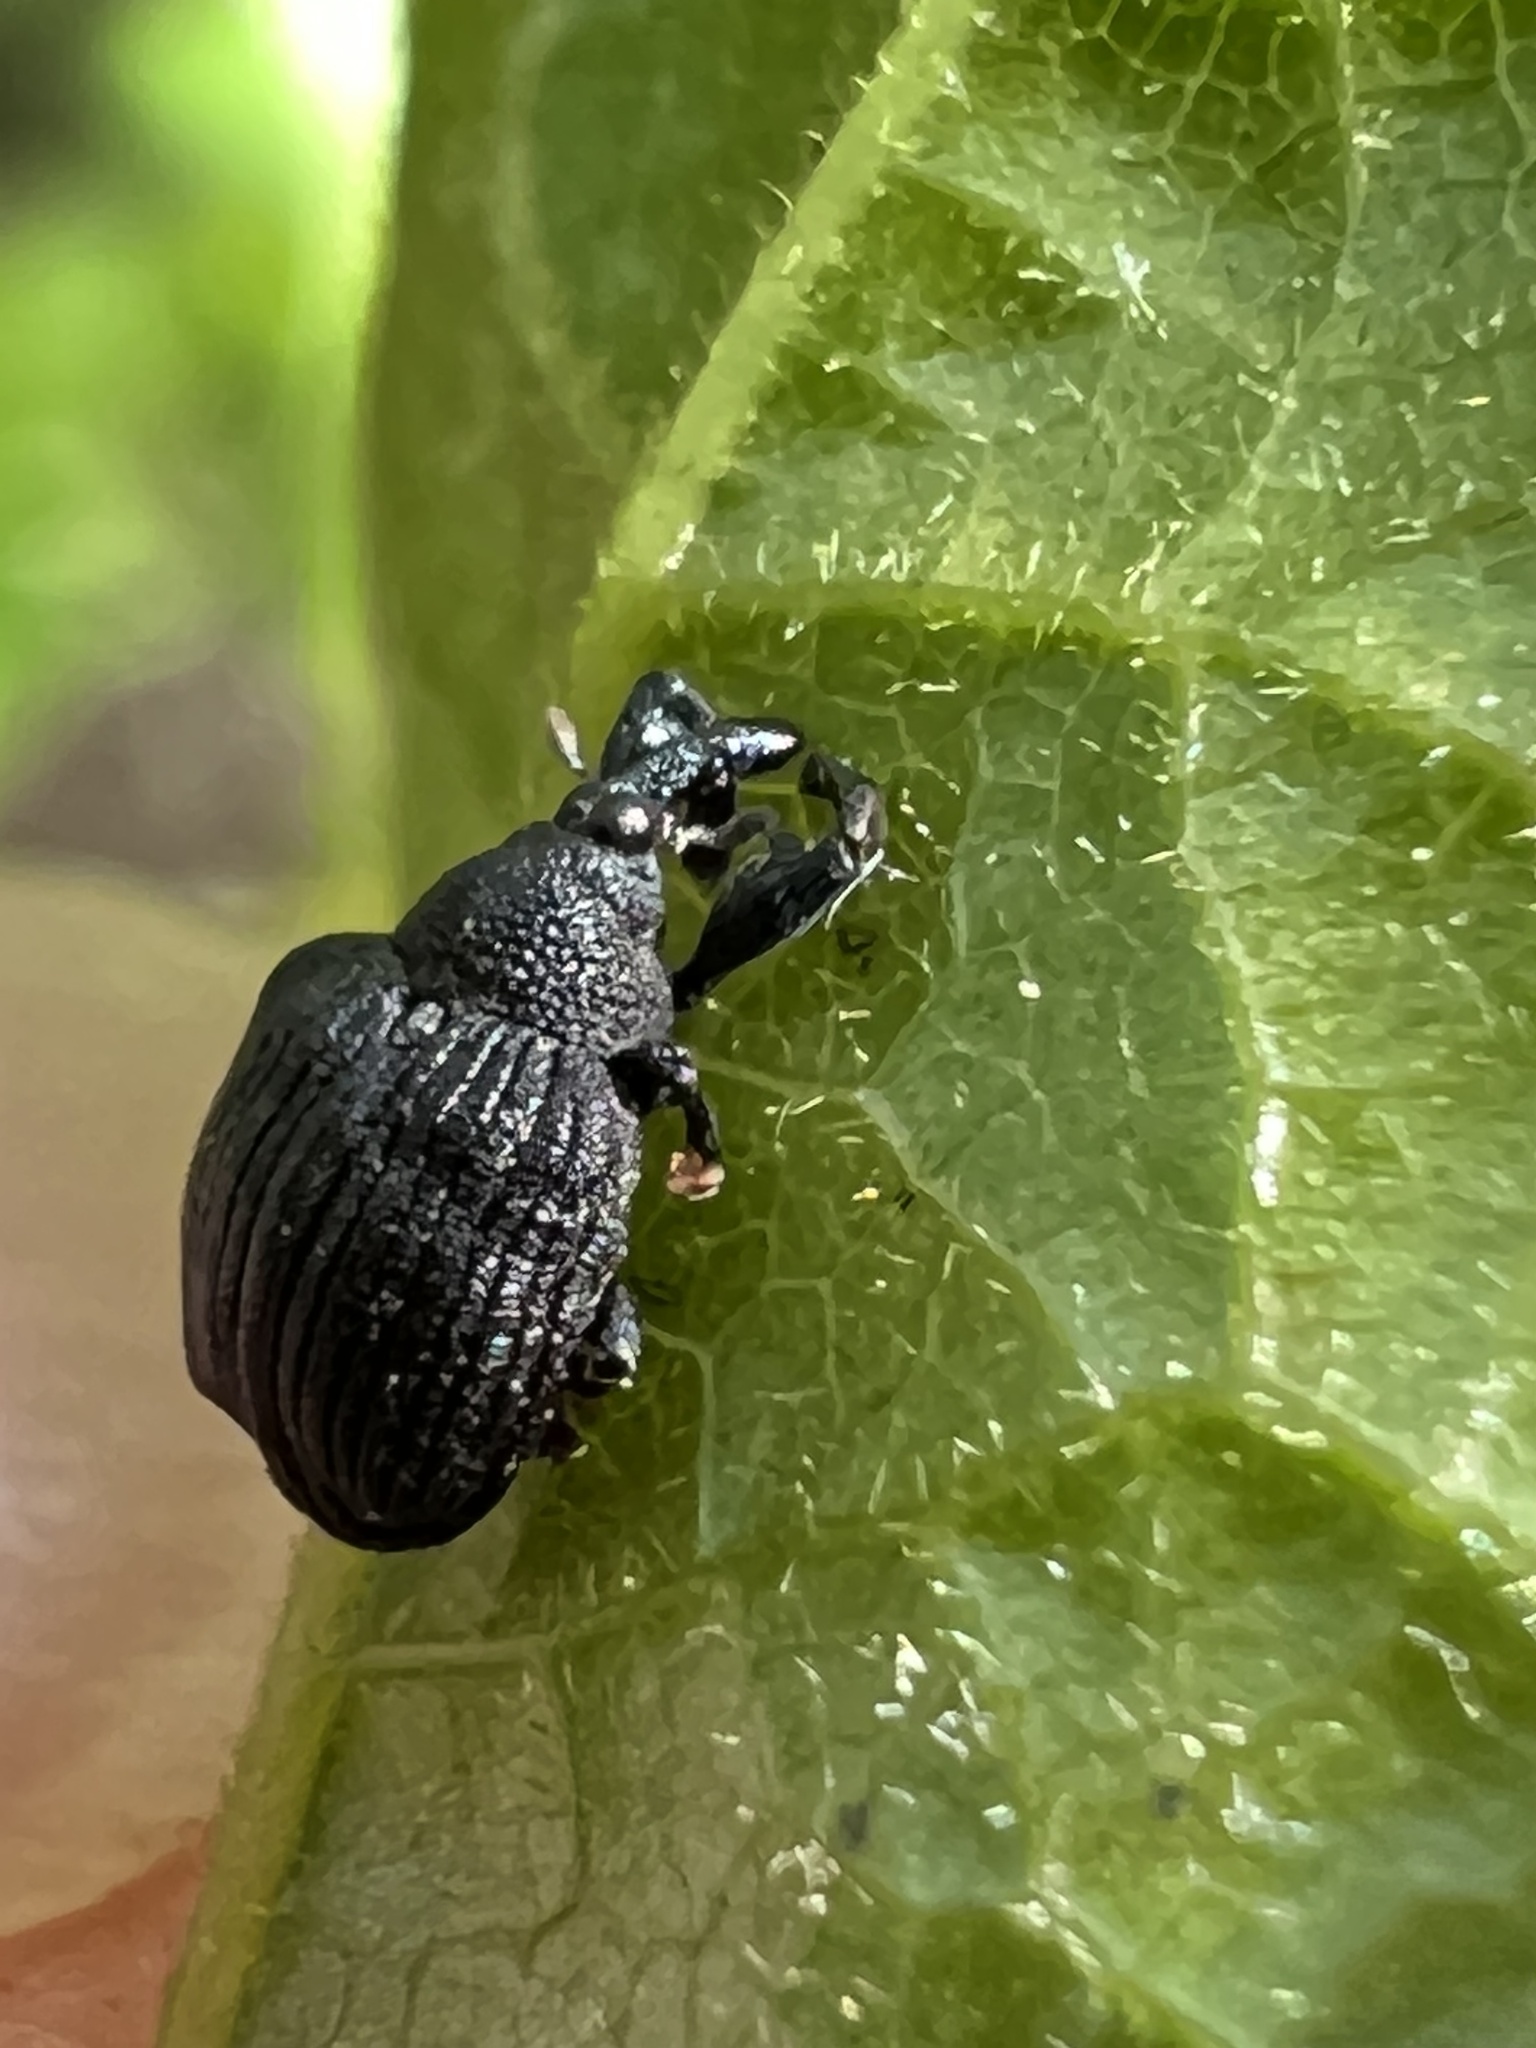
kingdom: Animalia
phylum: Arthropoda
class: Insecta
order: Coleoptera
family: Curculionidae
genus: Odontopus
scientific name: Odontopus calceatus
